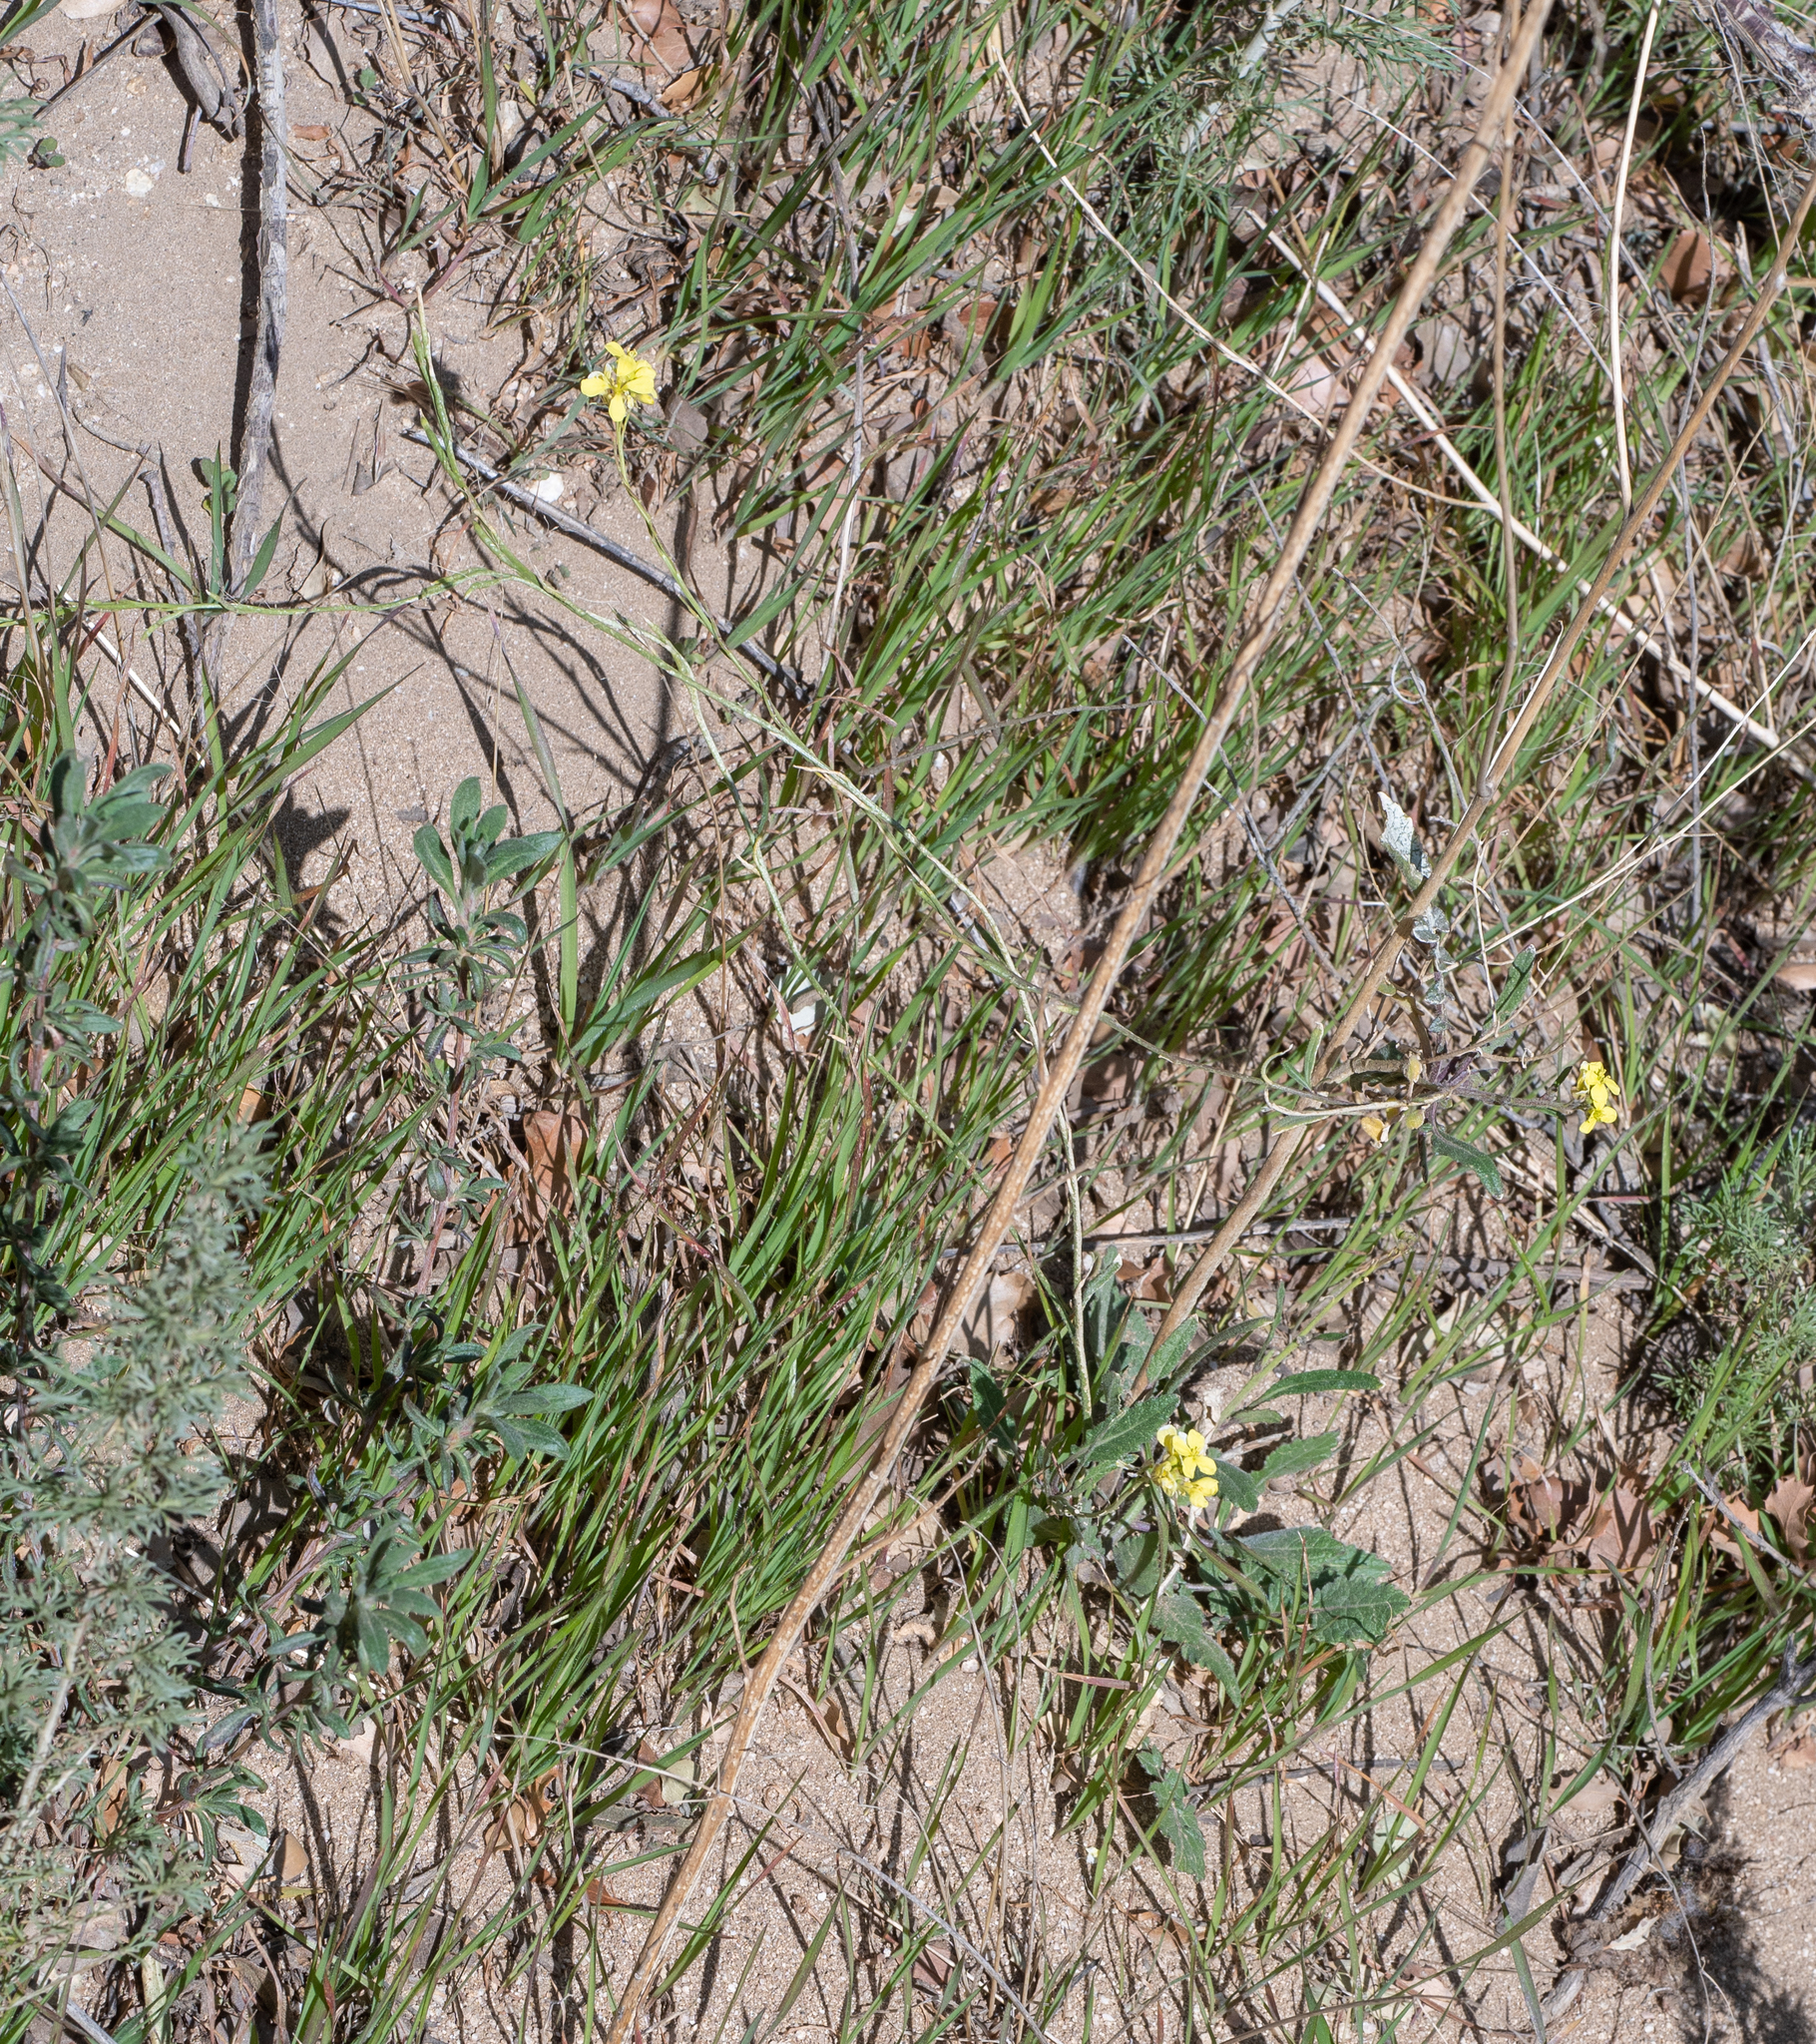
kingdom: Plantae
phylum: Tracheophyta
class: Magnoliopsida
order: Brassicales
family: Brassicaceae
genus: Hirschfeldia
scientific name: Hirschfeldia incana
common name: Hoary mustard
